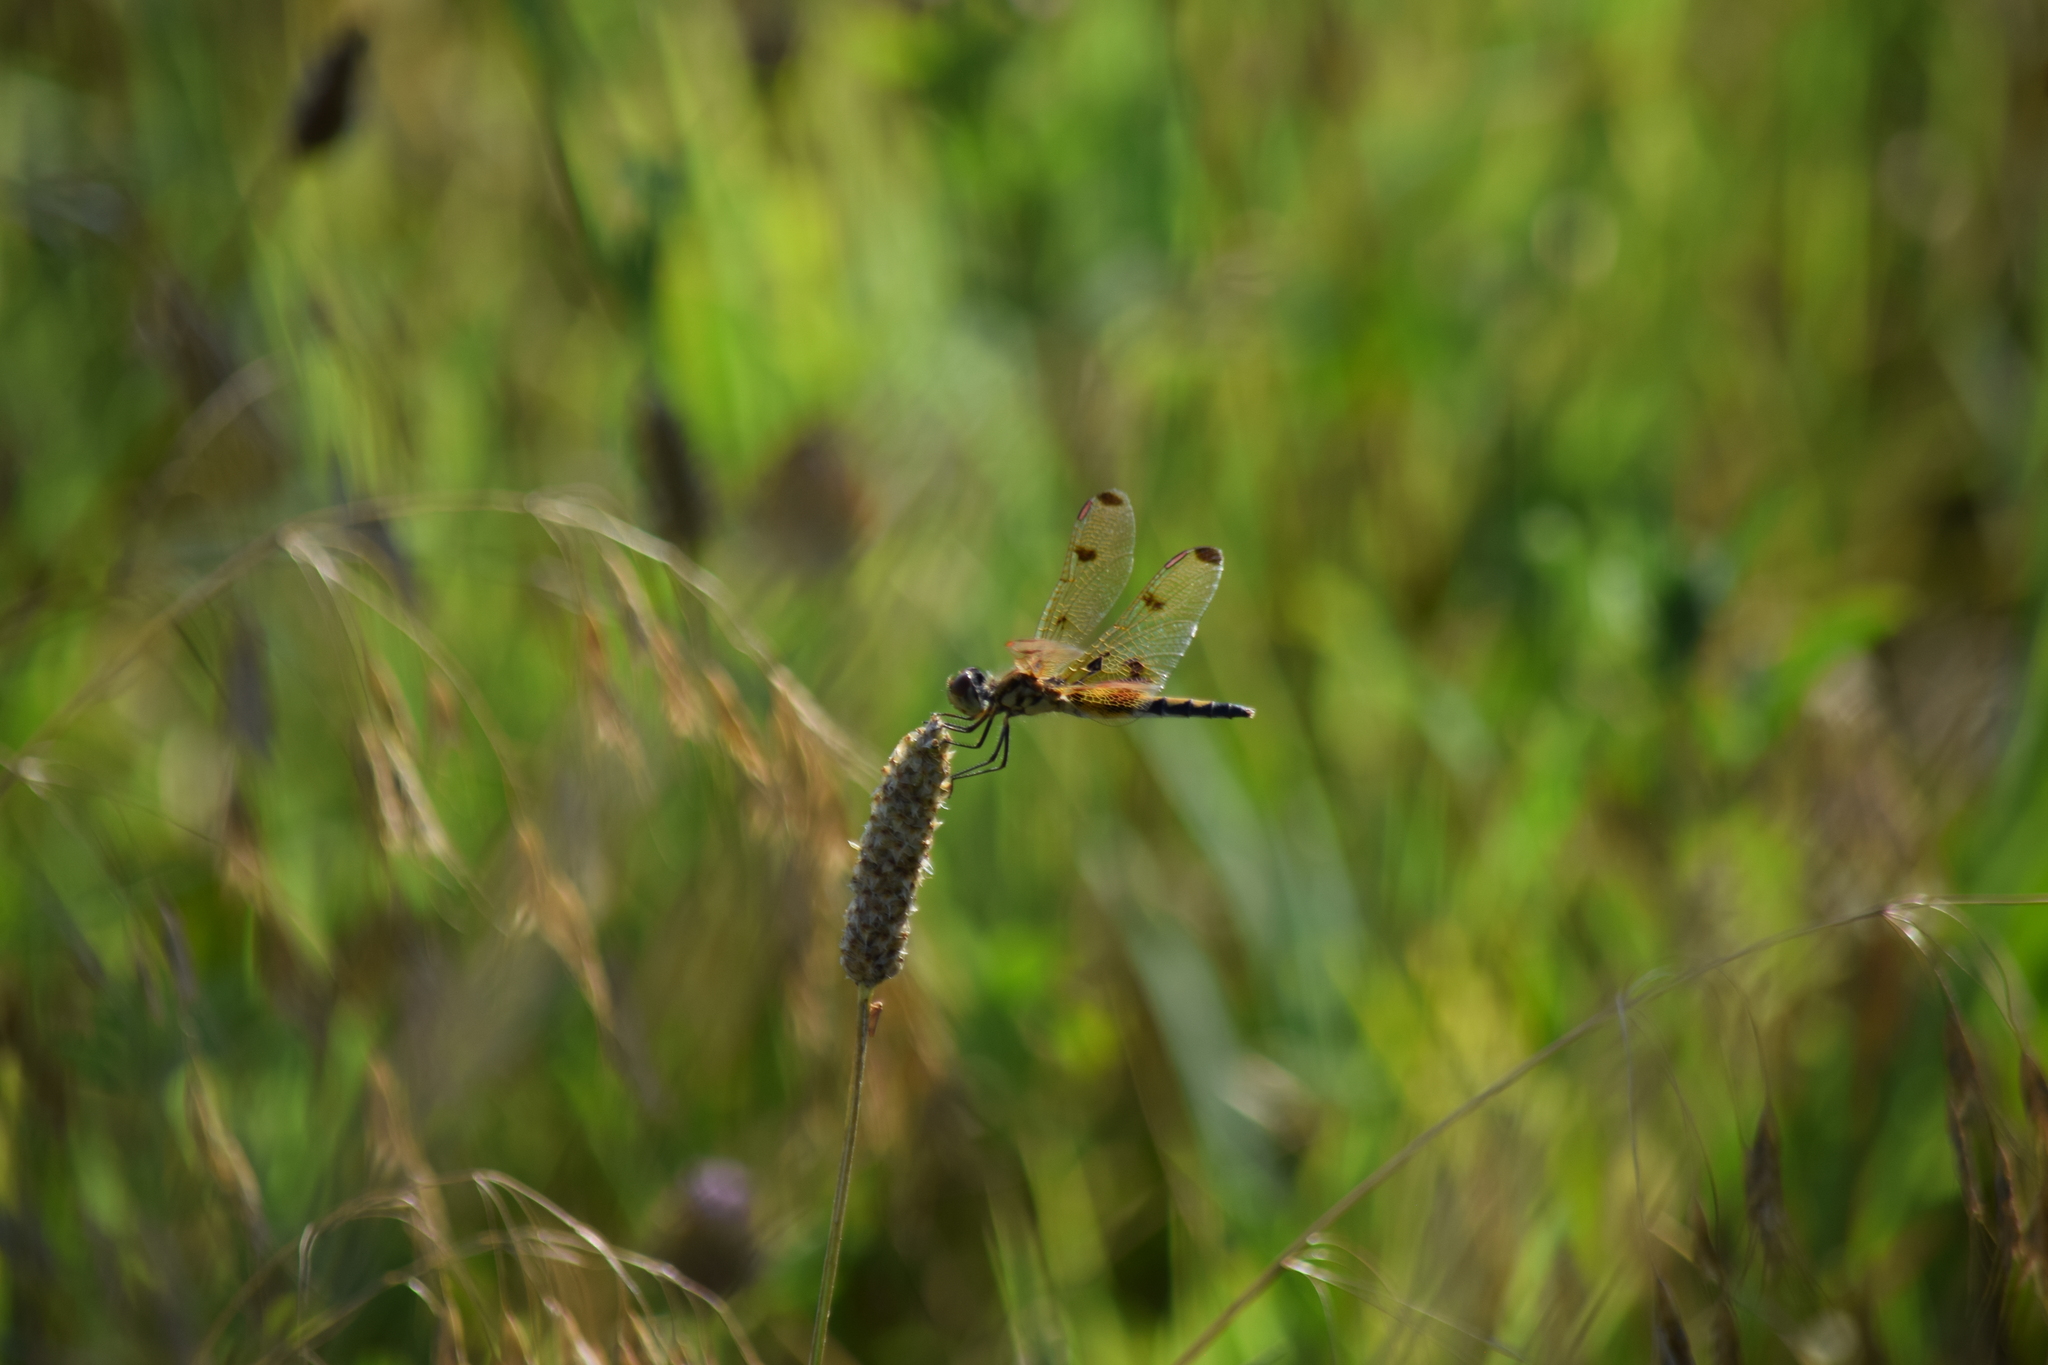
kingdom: Animalia
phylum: Arthropoda
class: Insecta
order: Odonata
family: Libellulidae
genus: Celithemis
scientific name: Celithemis elisa
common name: Calico pennant
